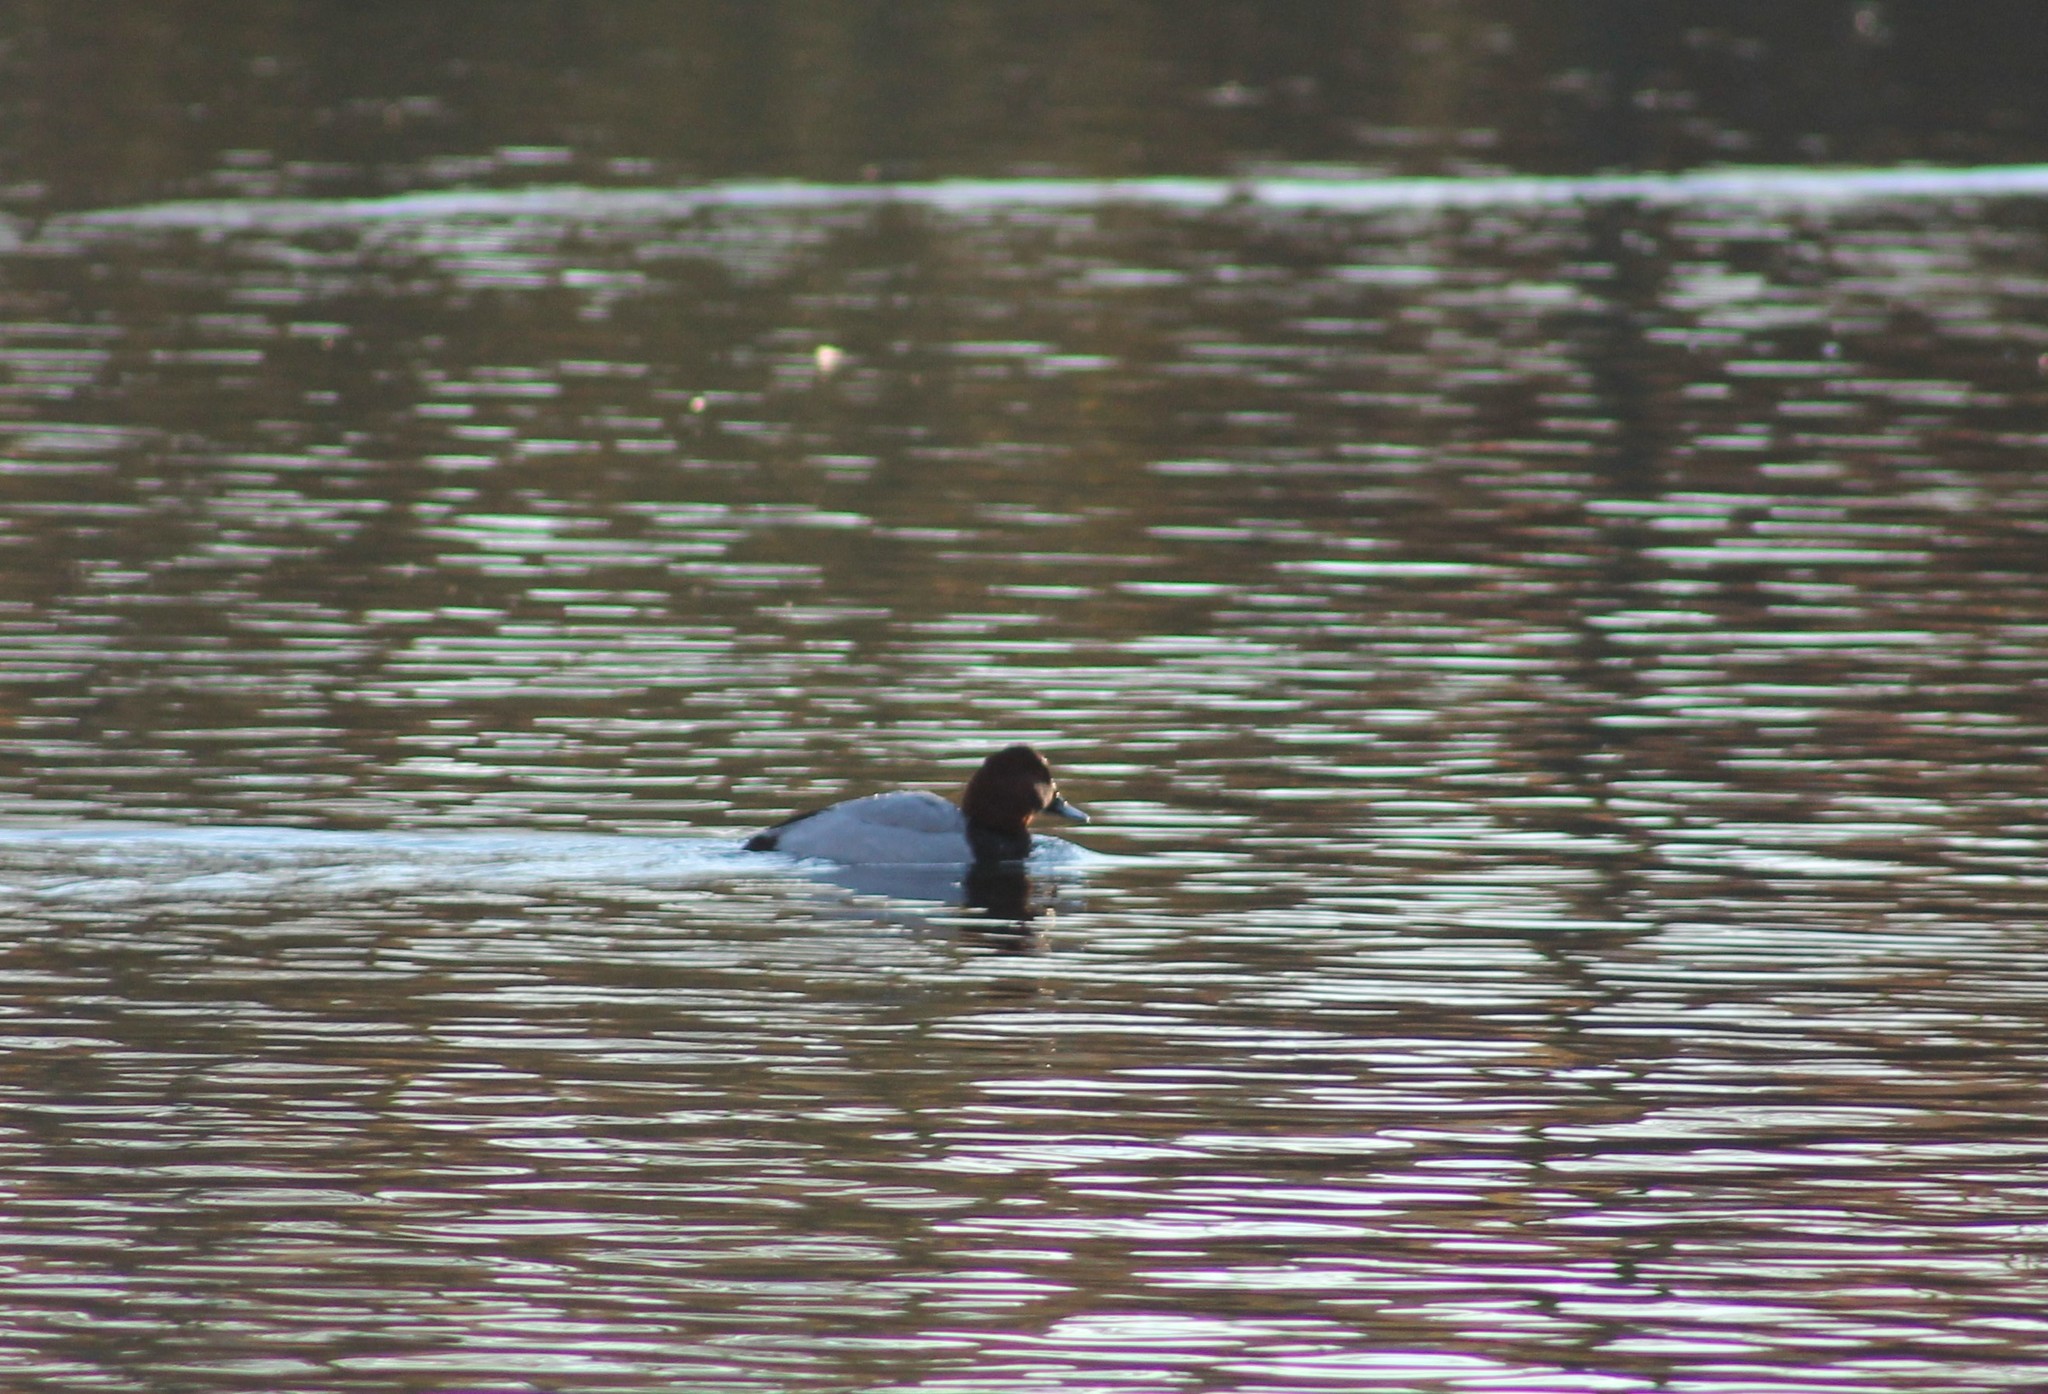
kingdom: Animalia
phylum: Chordata
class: Aves
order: Anseriformes
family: Anatidae
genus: Aythya
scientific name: Aythya ferina
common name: Common pochard
